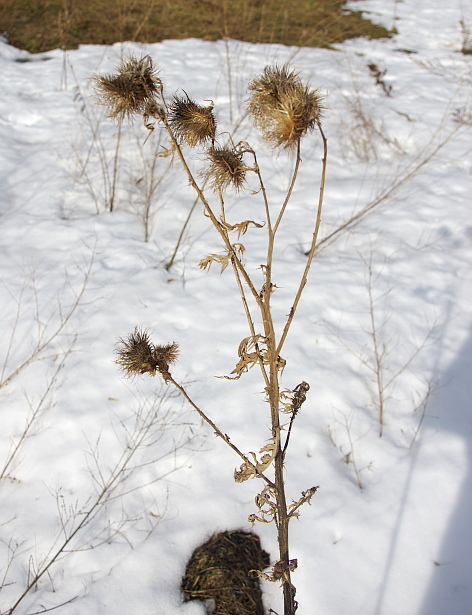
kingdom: Plantae
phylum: Tracheophyta
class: Magnoliopsida
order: Asterales
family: Asteraceae
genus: Cirsium
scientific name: Cirsium vulgare
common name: Bull thistle
